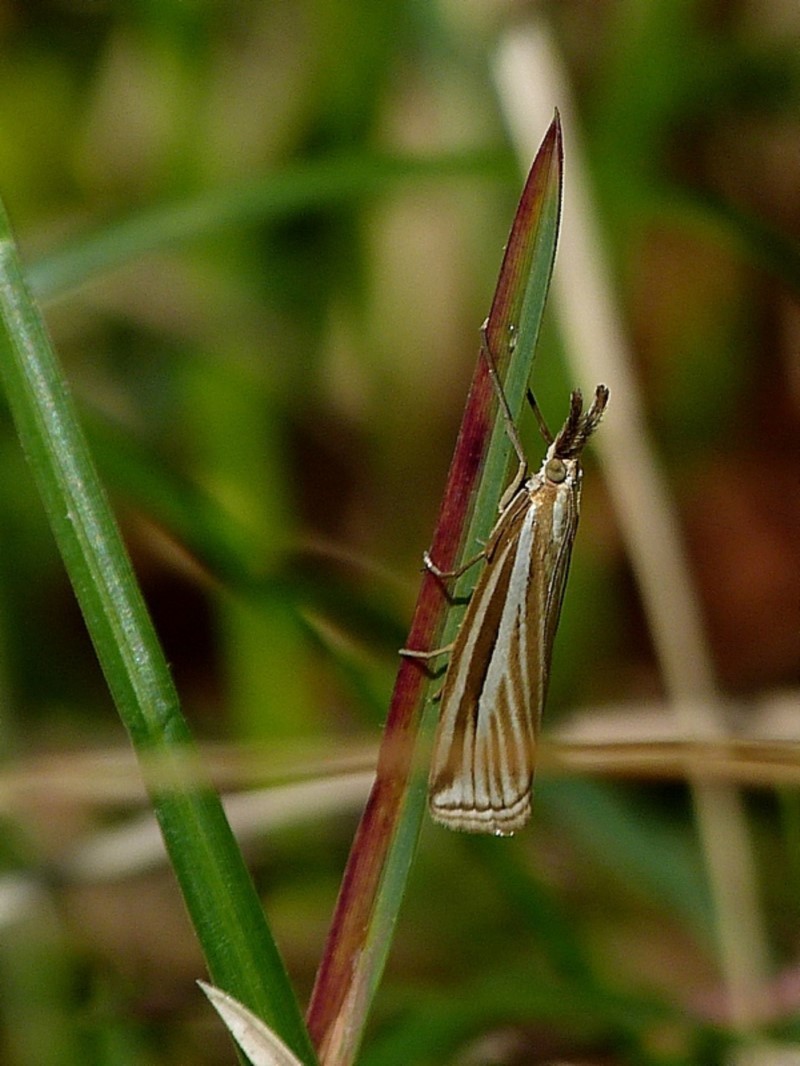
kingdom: Animalia
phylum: Arthropoda
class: Insecta
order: Lepidoptera
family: Crambidae
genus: Hednota
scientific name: Hednota megalarcha
